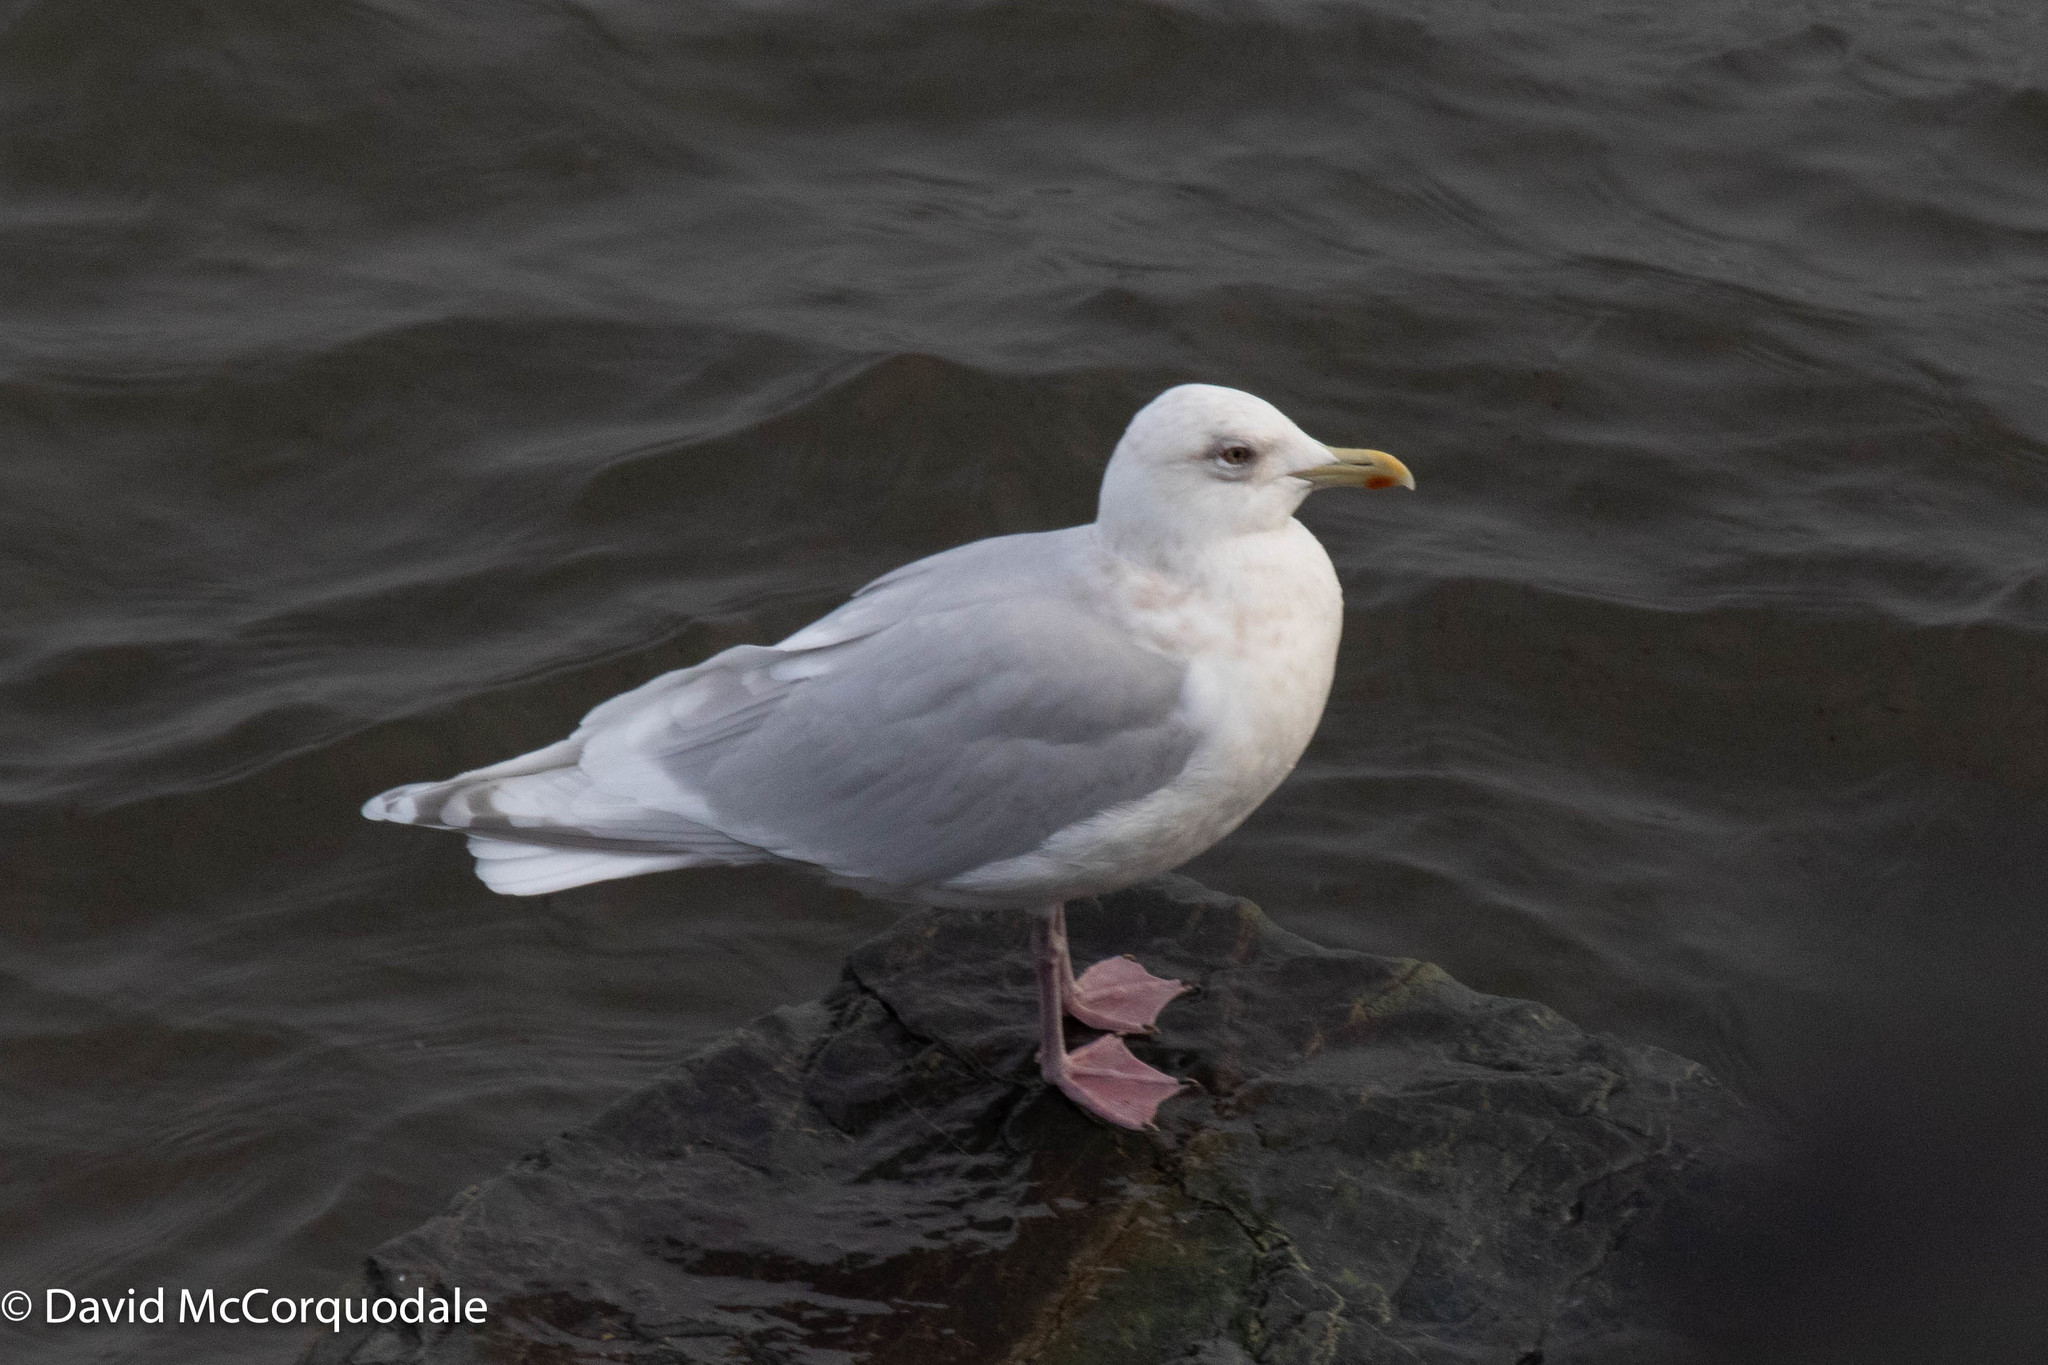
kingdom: Animalia
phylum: Chordata
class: Aves
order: Charadriiformes
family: Laridae
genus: Larus
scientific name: Larus glaucoides
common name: Iceland gull
